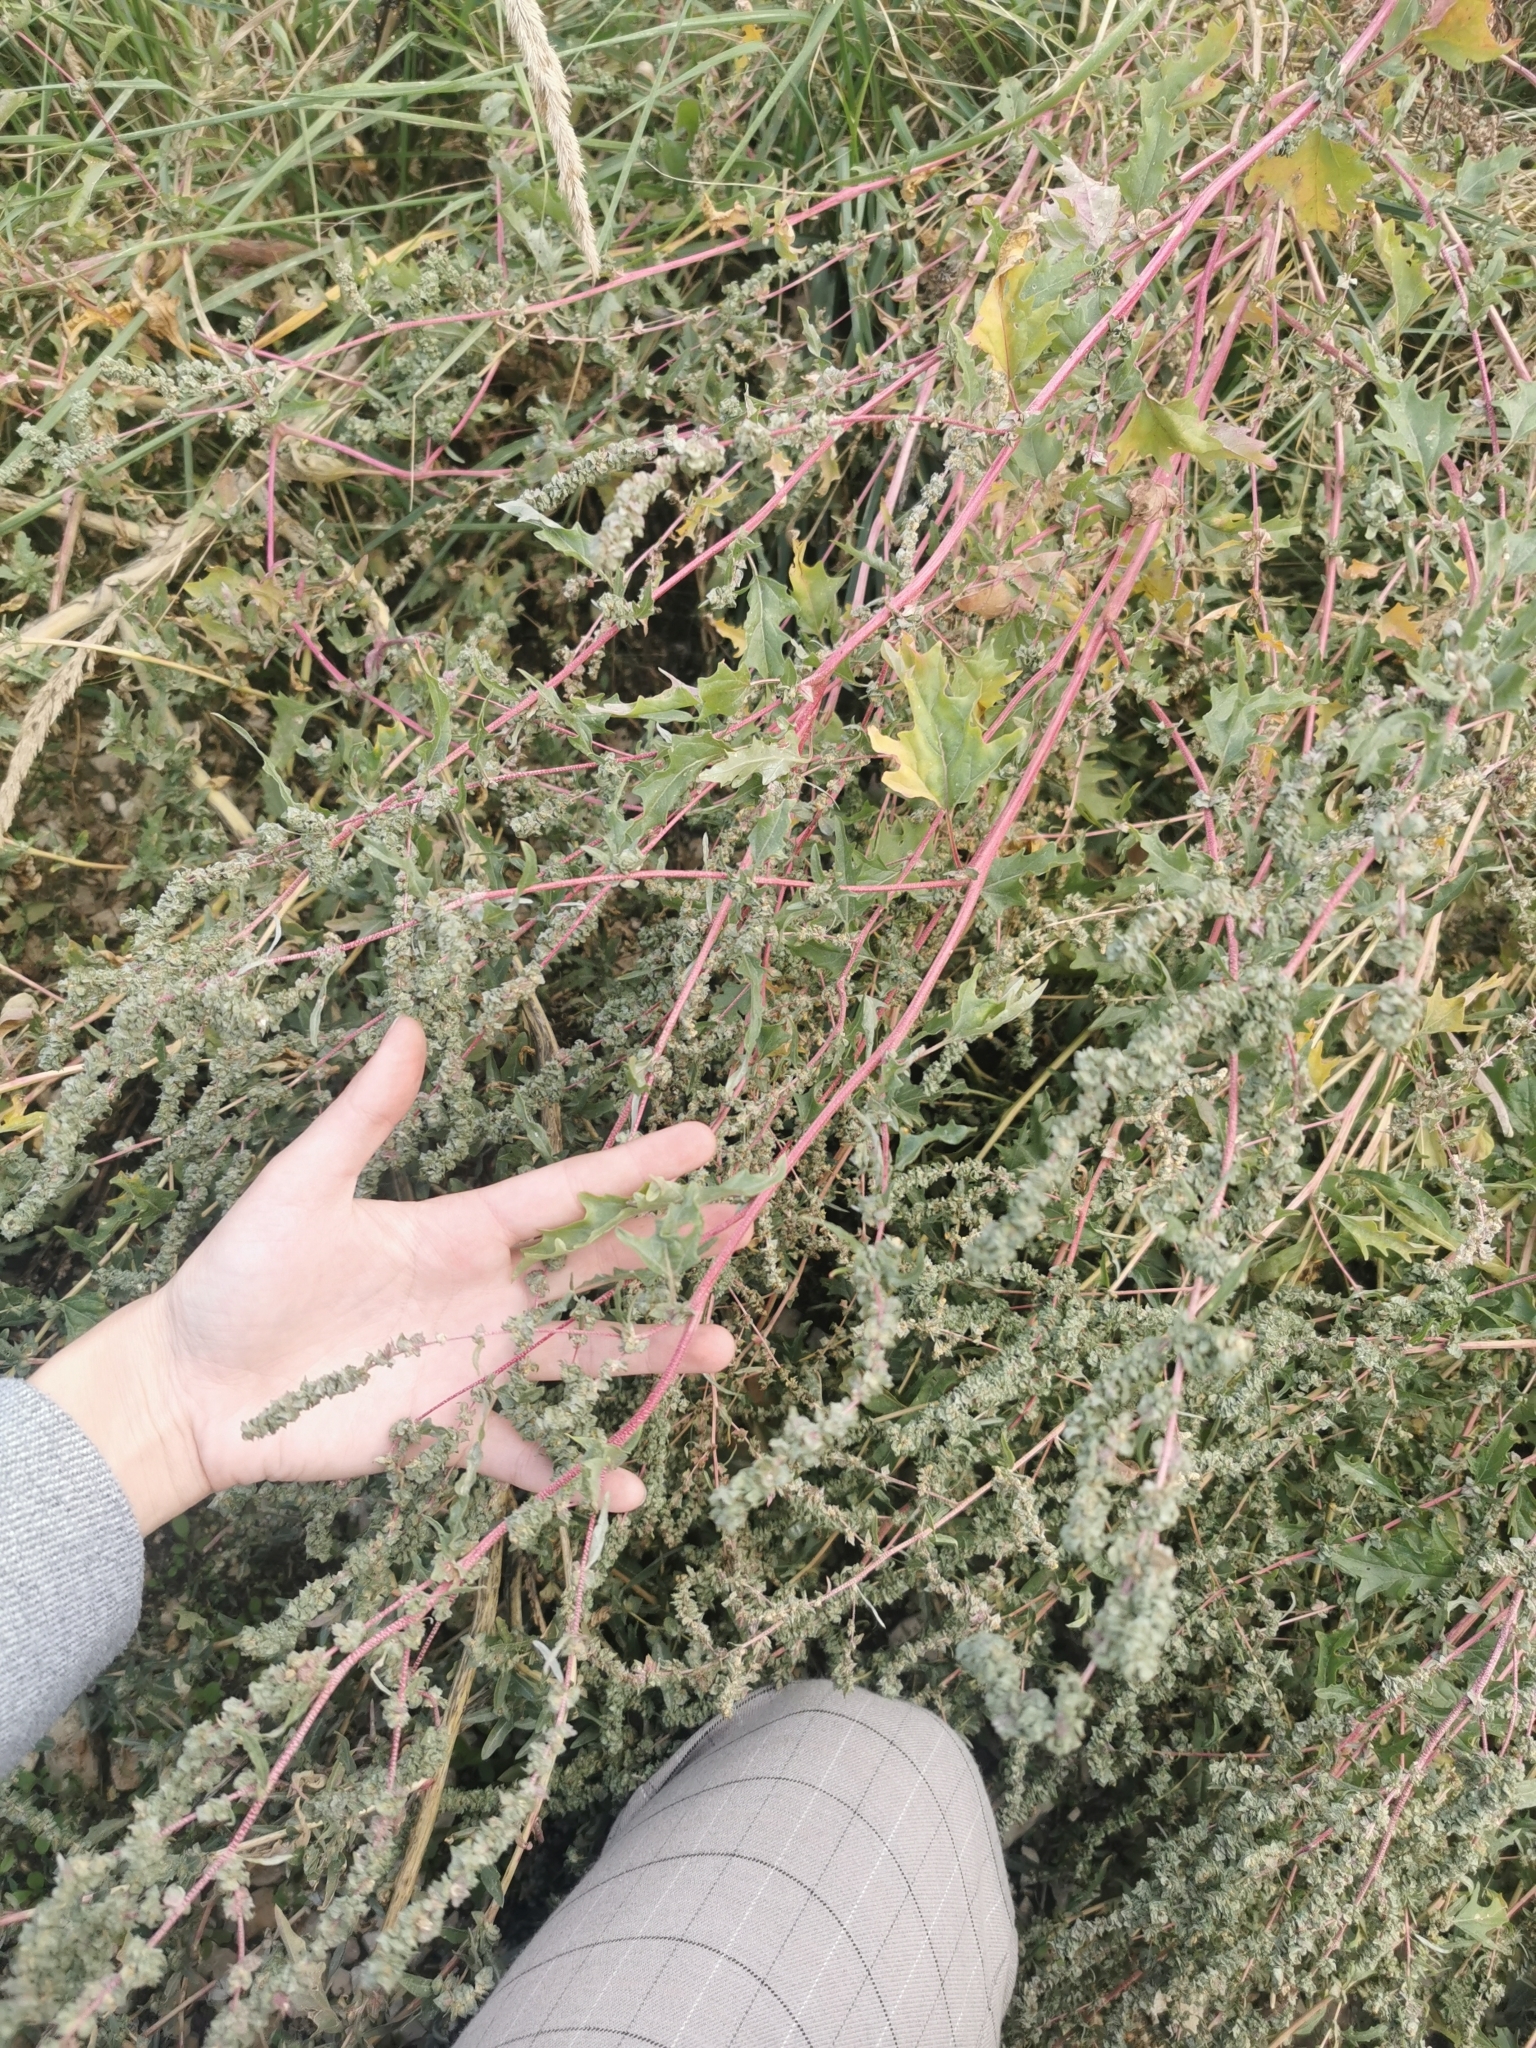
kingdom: Plantae
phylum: Tracheophyta
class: Magnoliopsida
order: Caryophyllales
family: Amaranthaceae
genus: Atriplex
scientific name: Atriplex tatarica
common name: Tatarian orache
